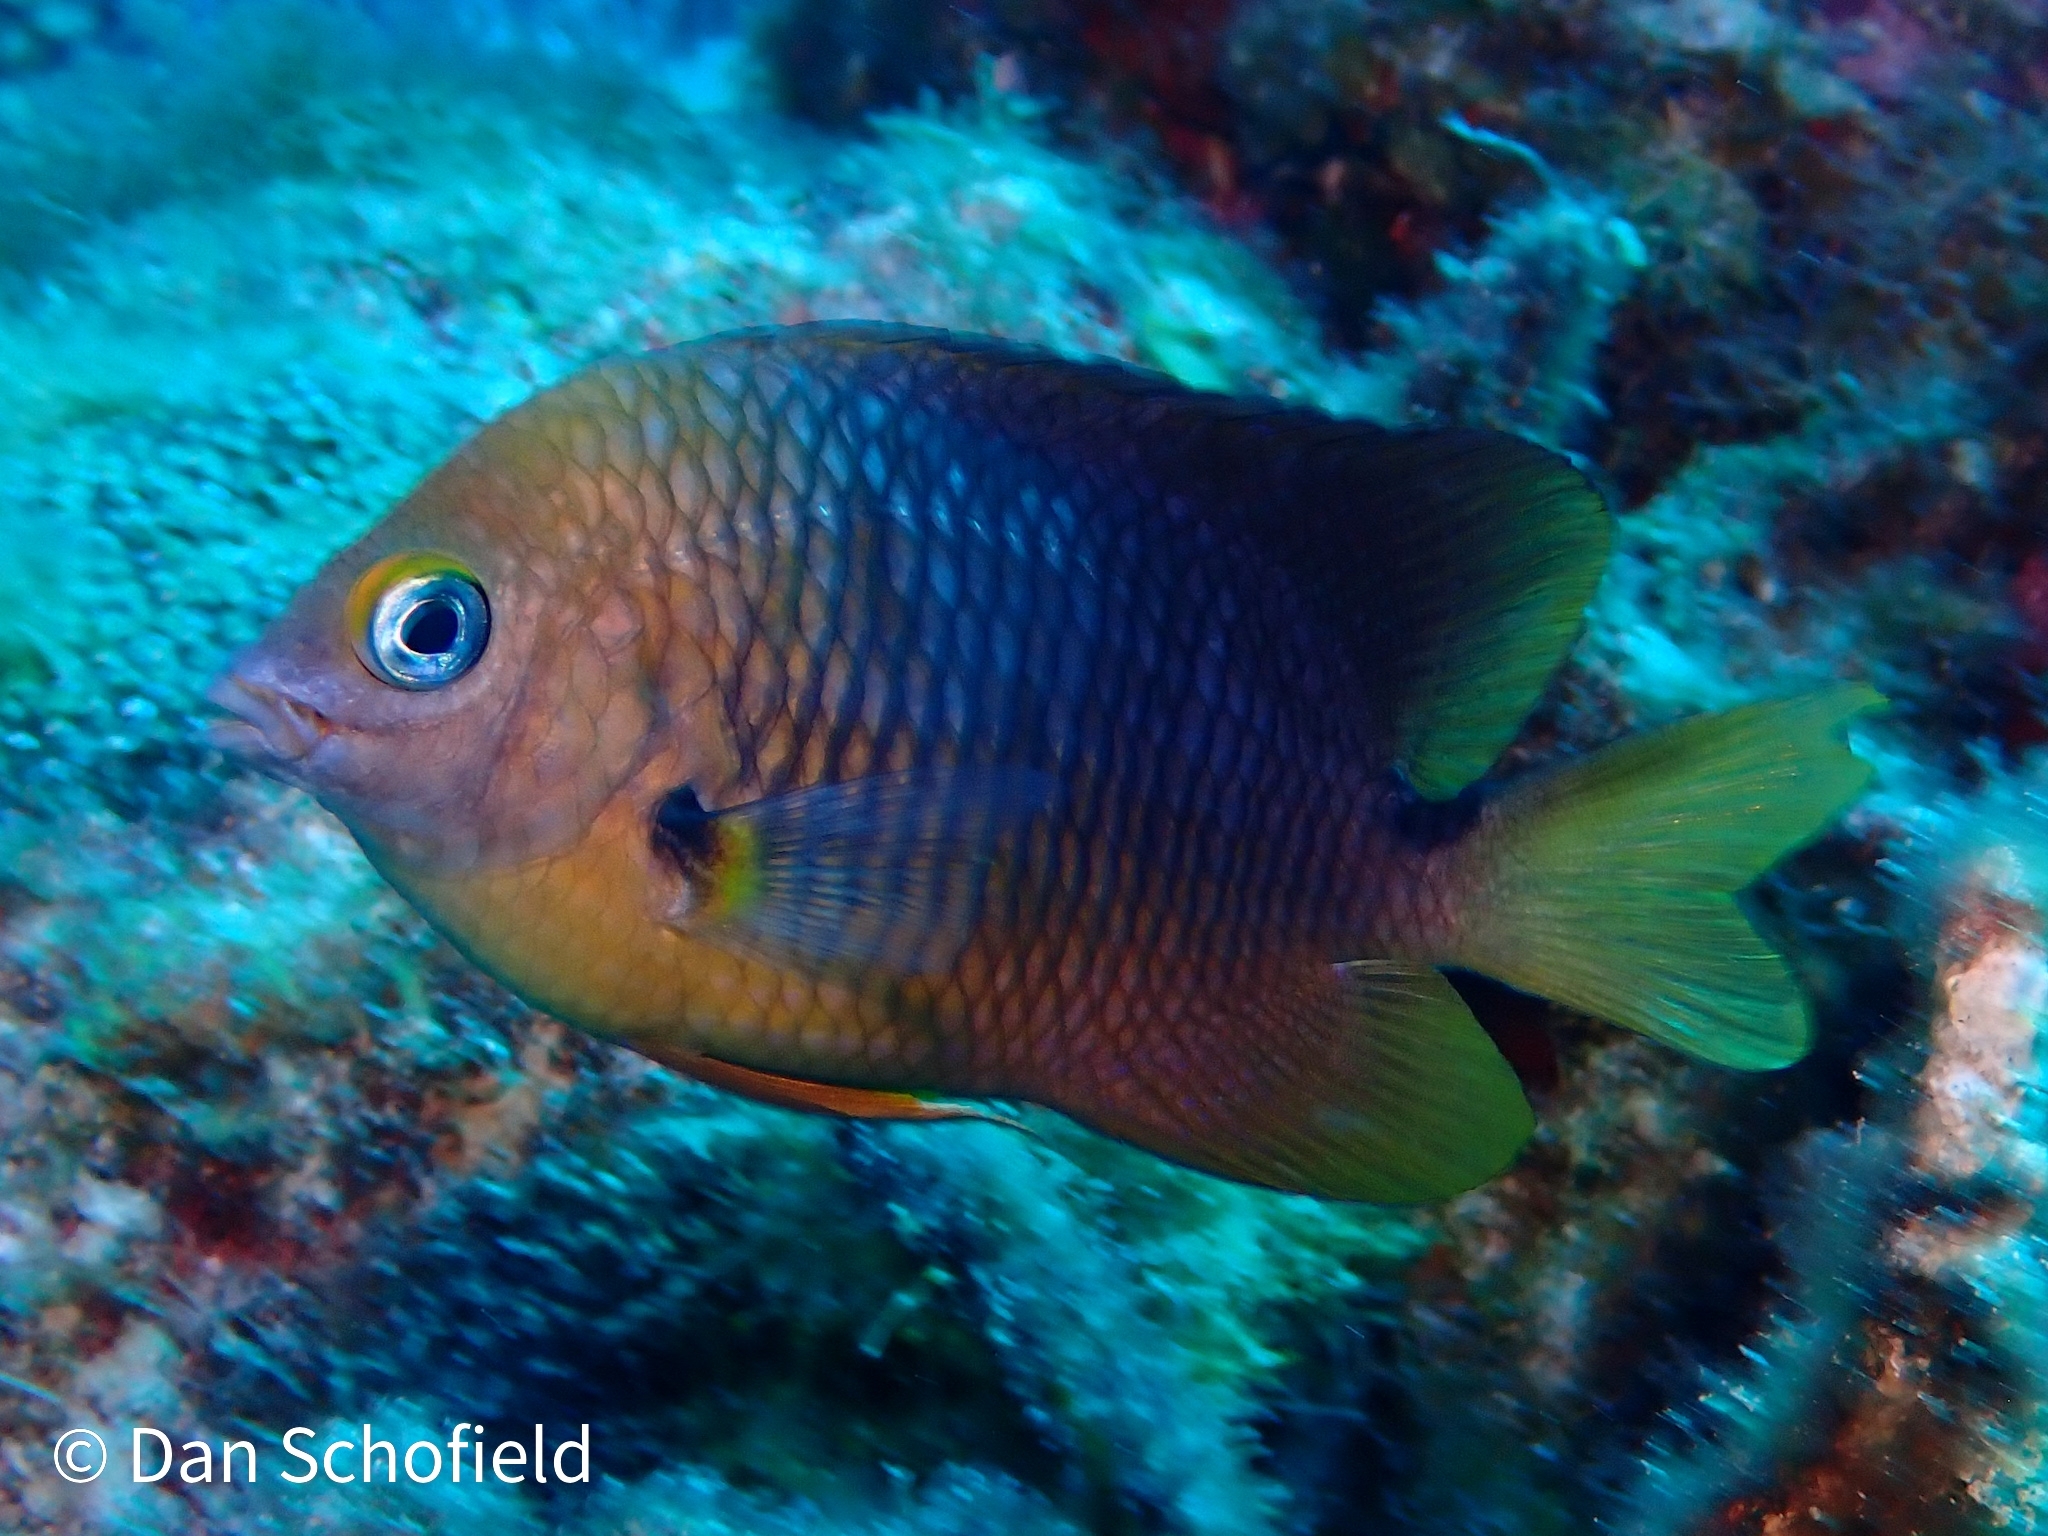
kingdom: Animalia
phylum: Chordata
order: Perciformes
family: Pomacentridae
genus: Stegastes
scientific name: Stegastes planifrons
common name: Threespot damselfish
